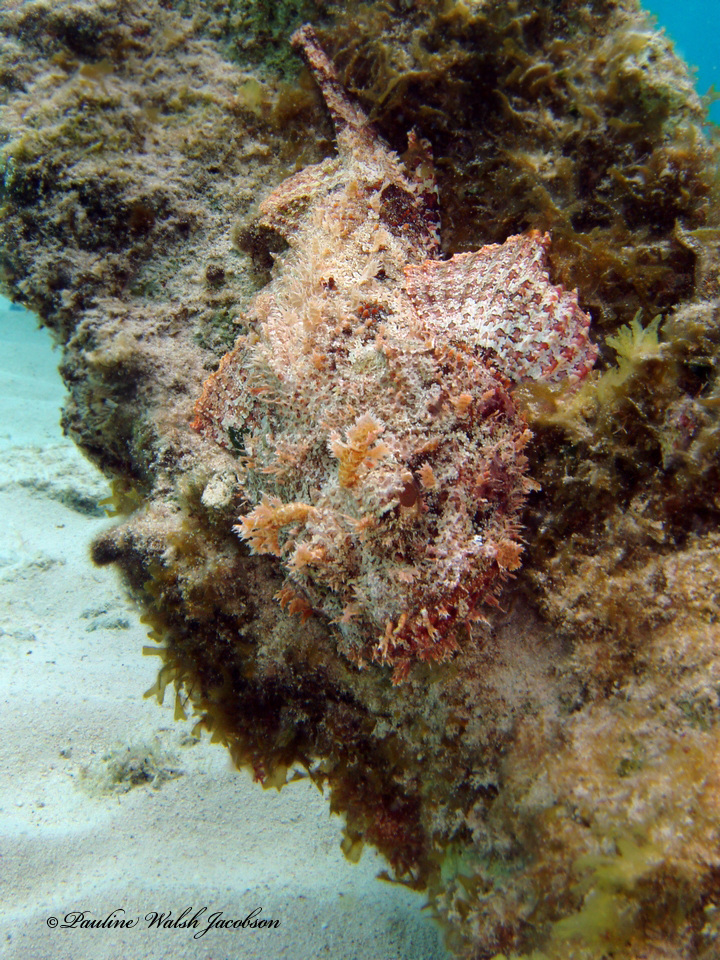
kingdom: Animalia
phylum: Chordata
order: Scorpaeniformes
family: Scorpaenidae
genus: Scorpaena
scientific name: Scorpaena plumieri
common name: Spotted scorpionfish
